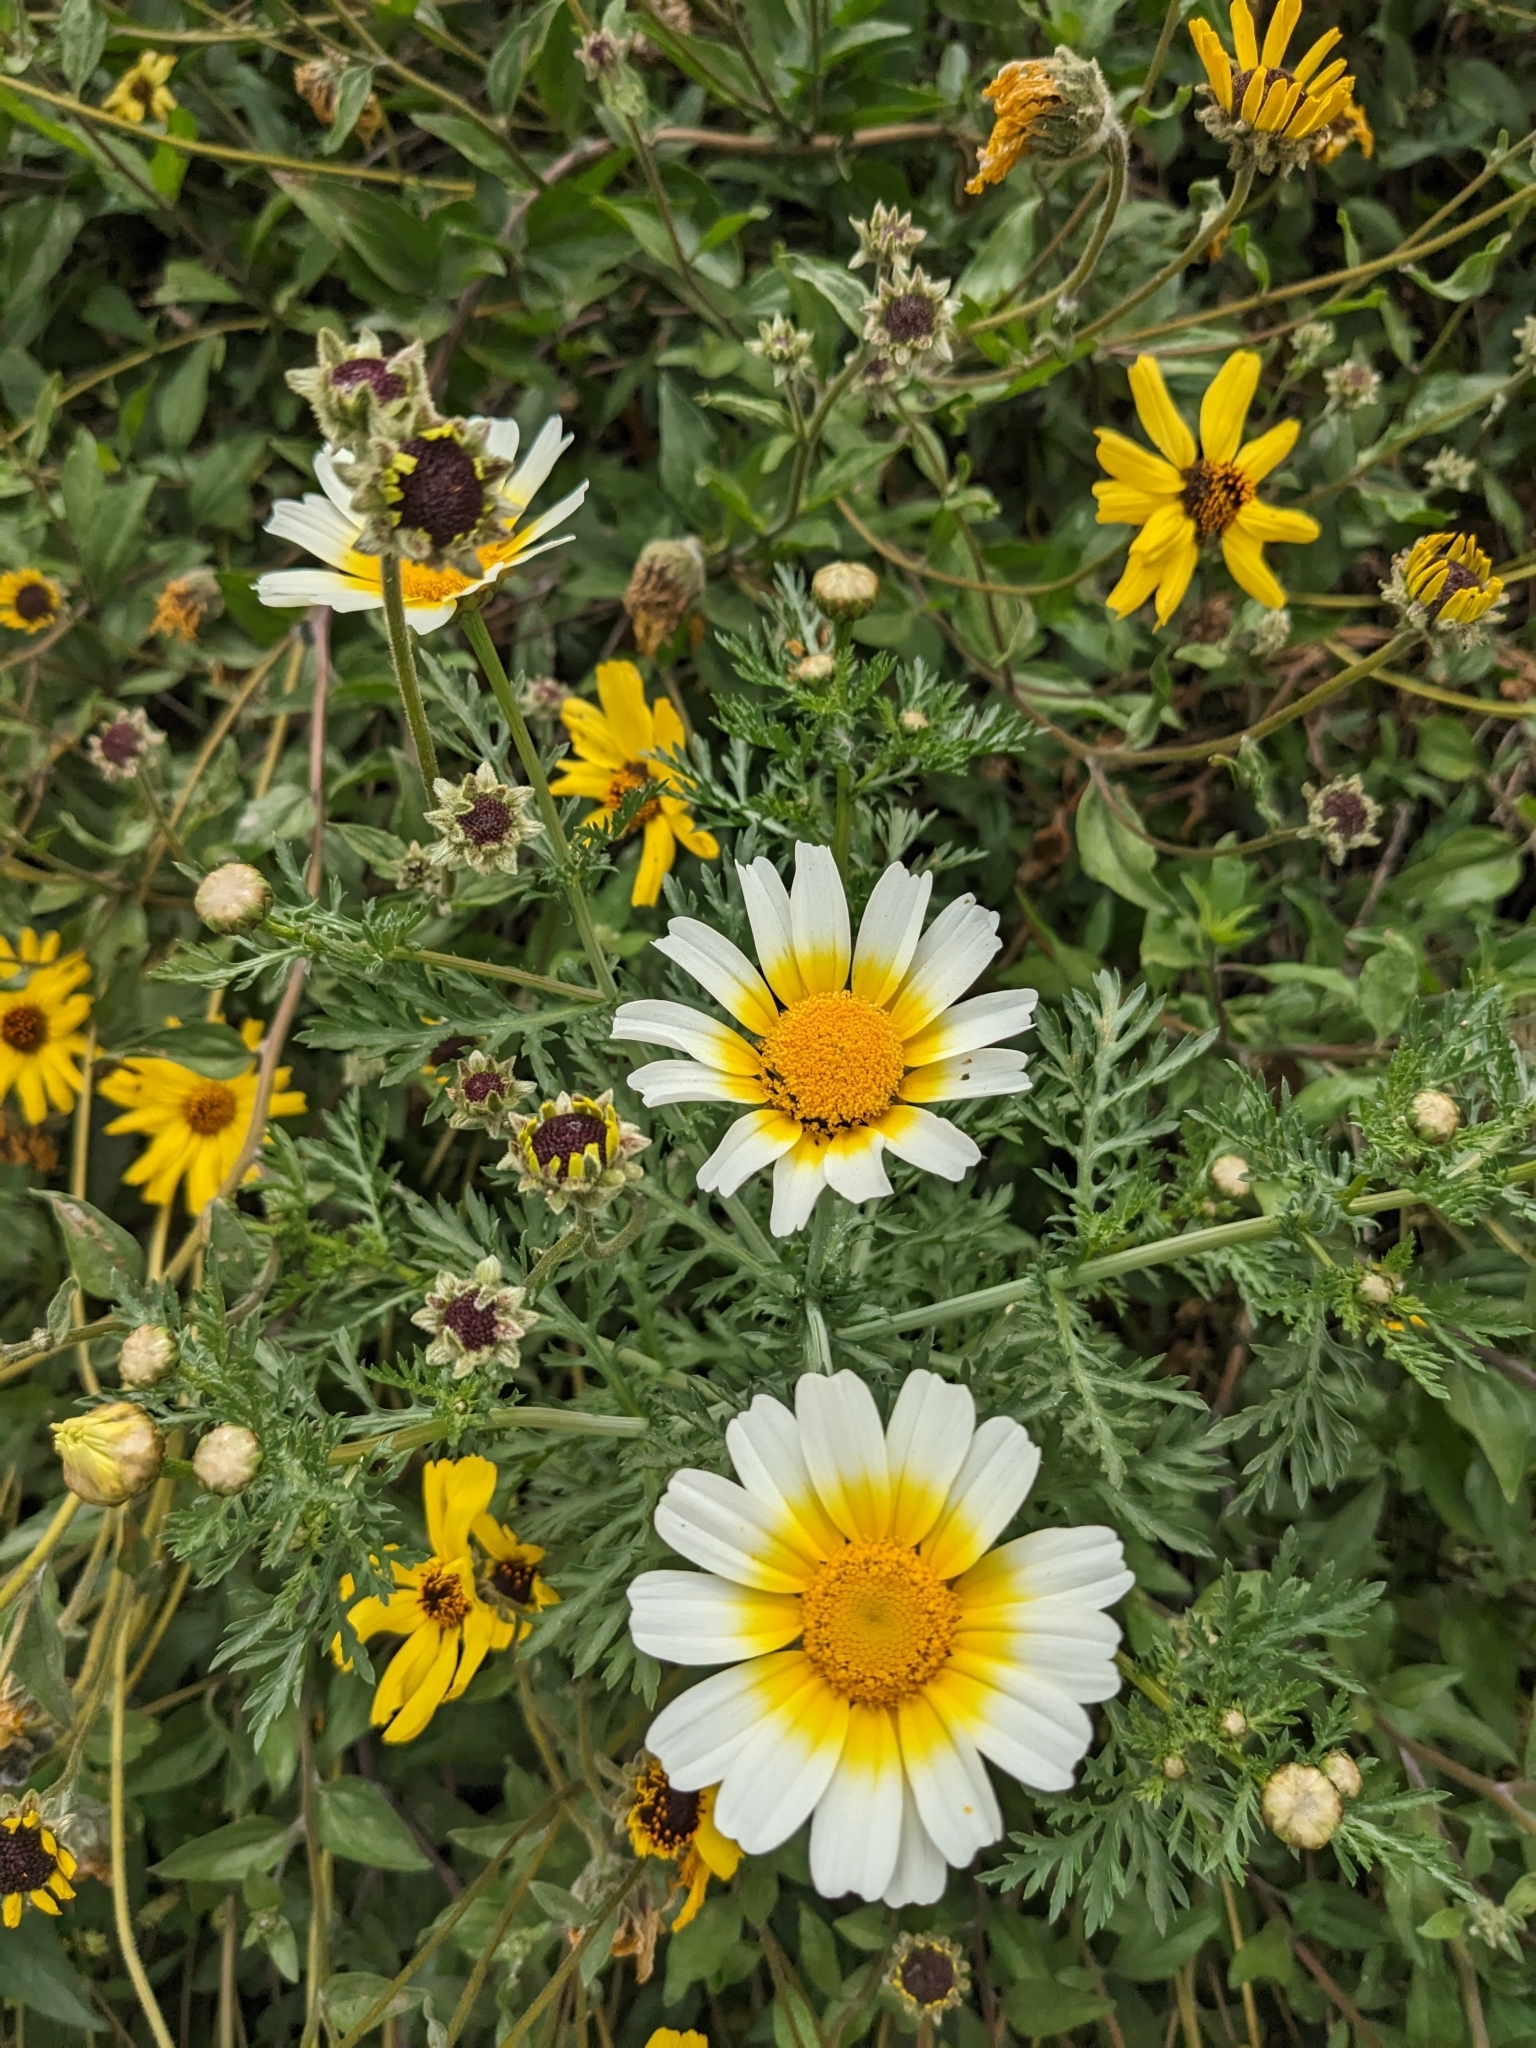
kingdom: Plantae
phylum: Tracheophyta
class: Magnoliopsida
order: Asterales
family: Asteraceae
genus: Glebionis
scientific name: Glebionis coronaria
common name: Crowndaisy
